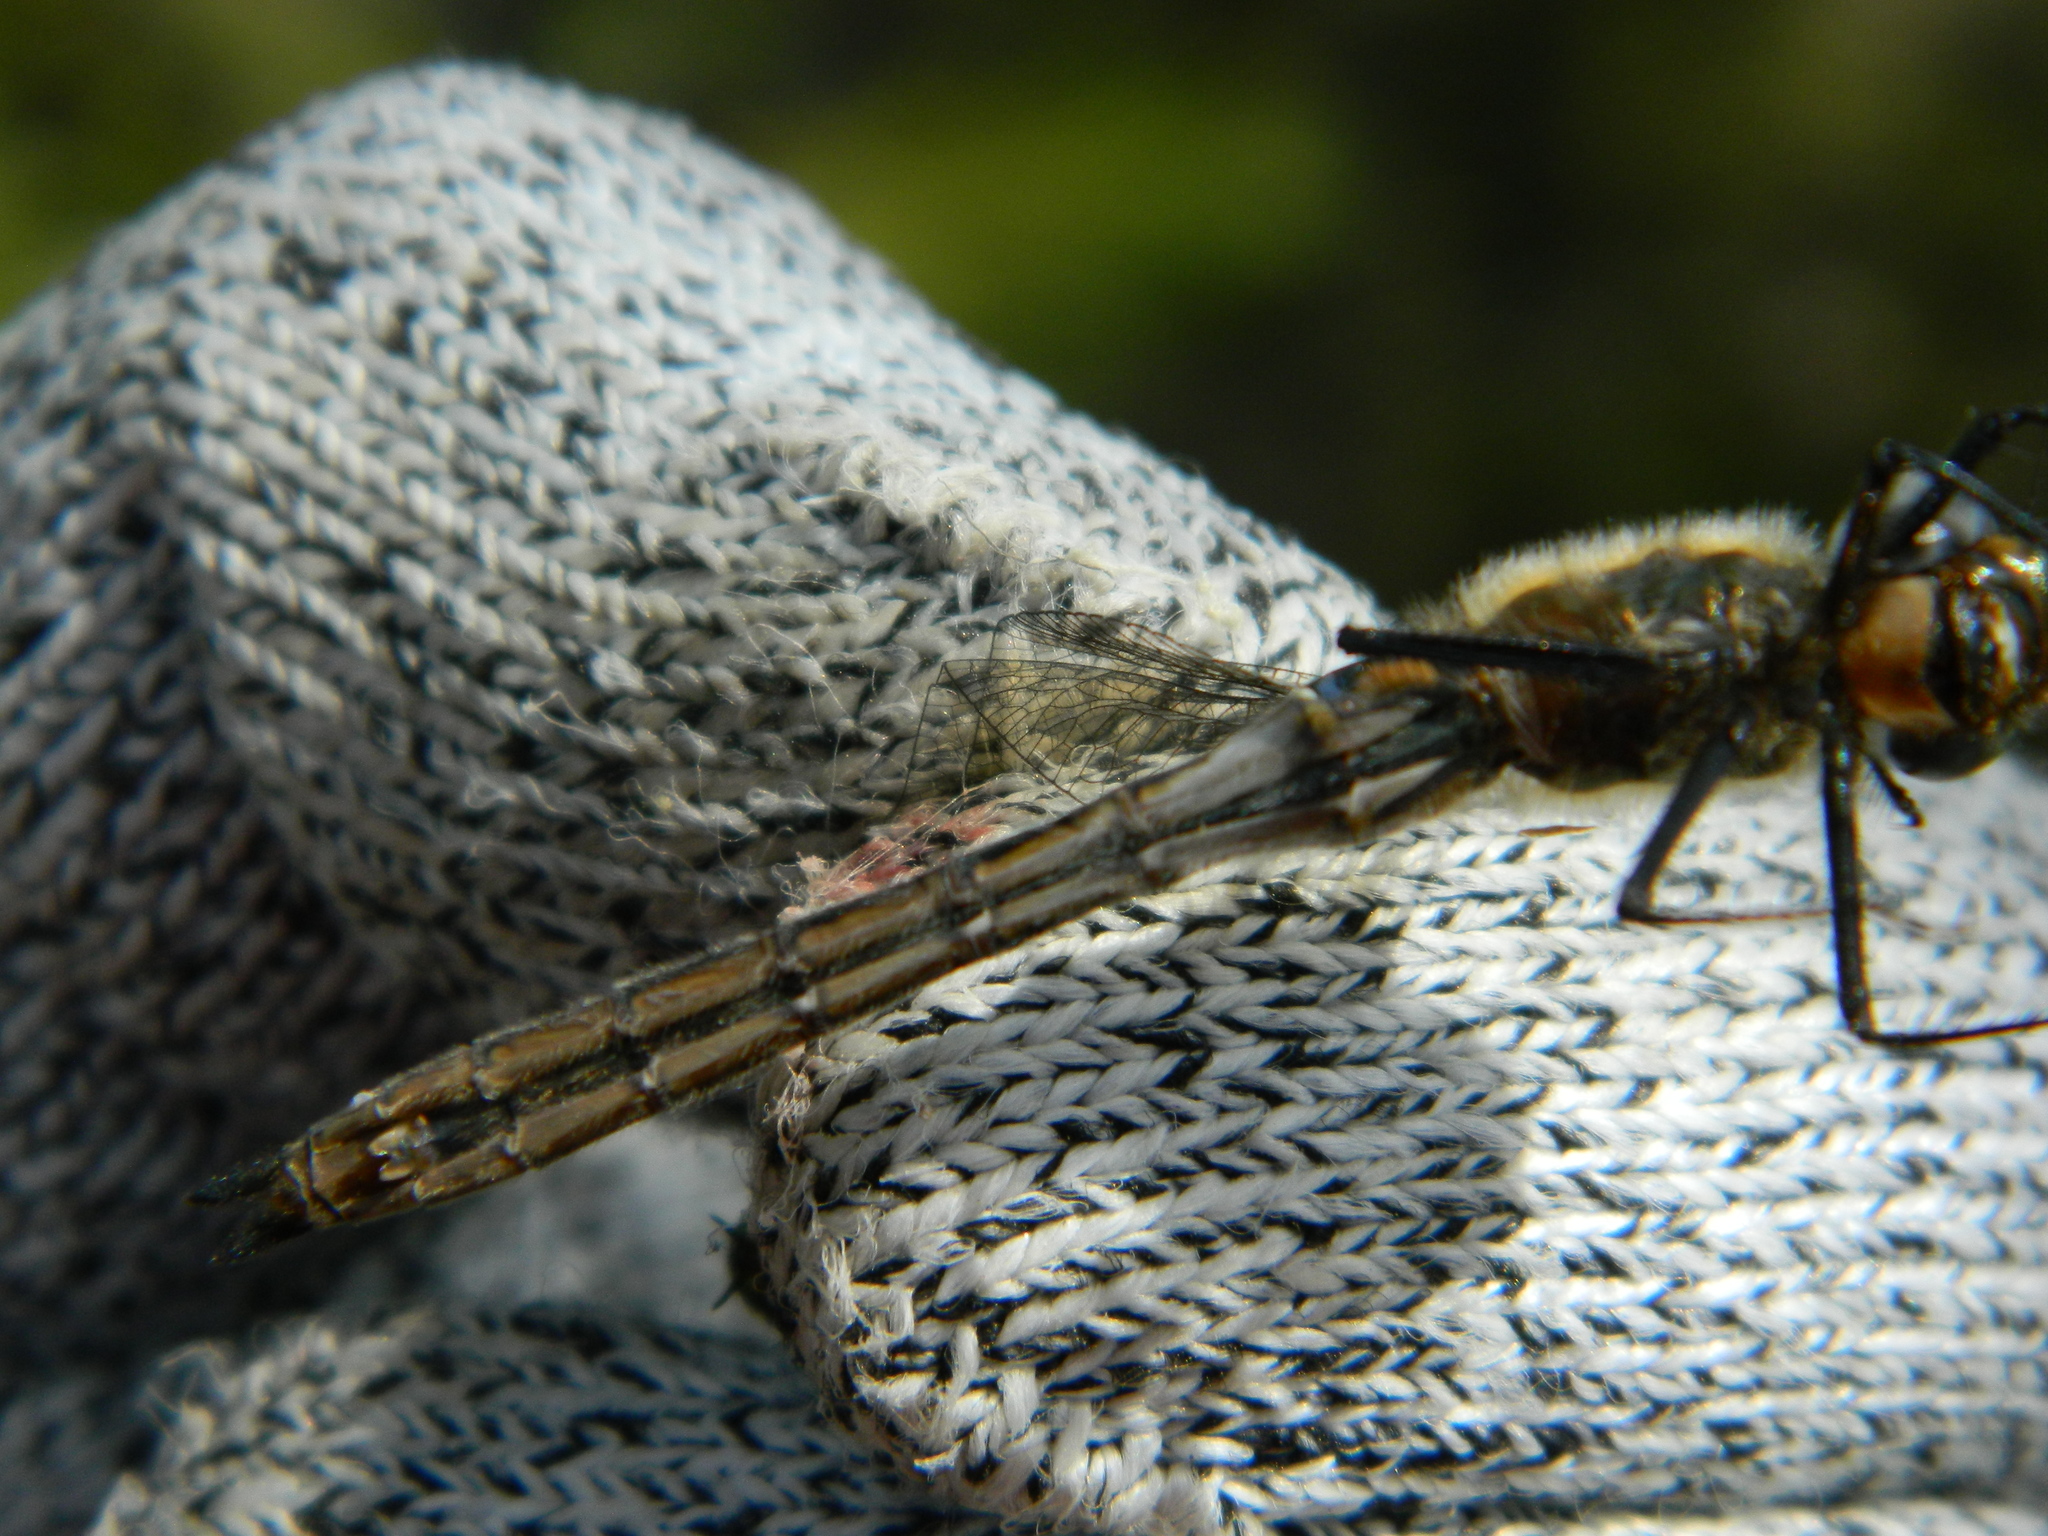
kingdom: Animalia
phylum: Arthropoda
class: Insecta
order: Odonata
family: Corduliidae
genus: Cordulia
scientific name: Cordulia shurtleffii
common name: American emerald
